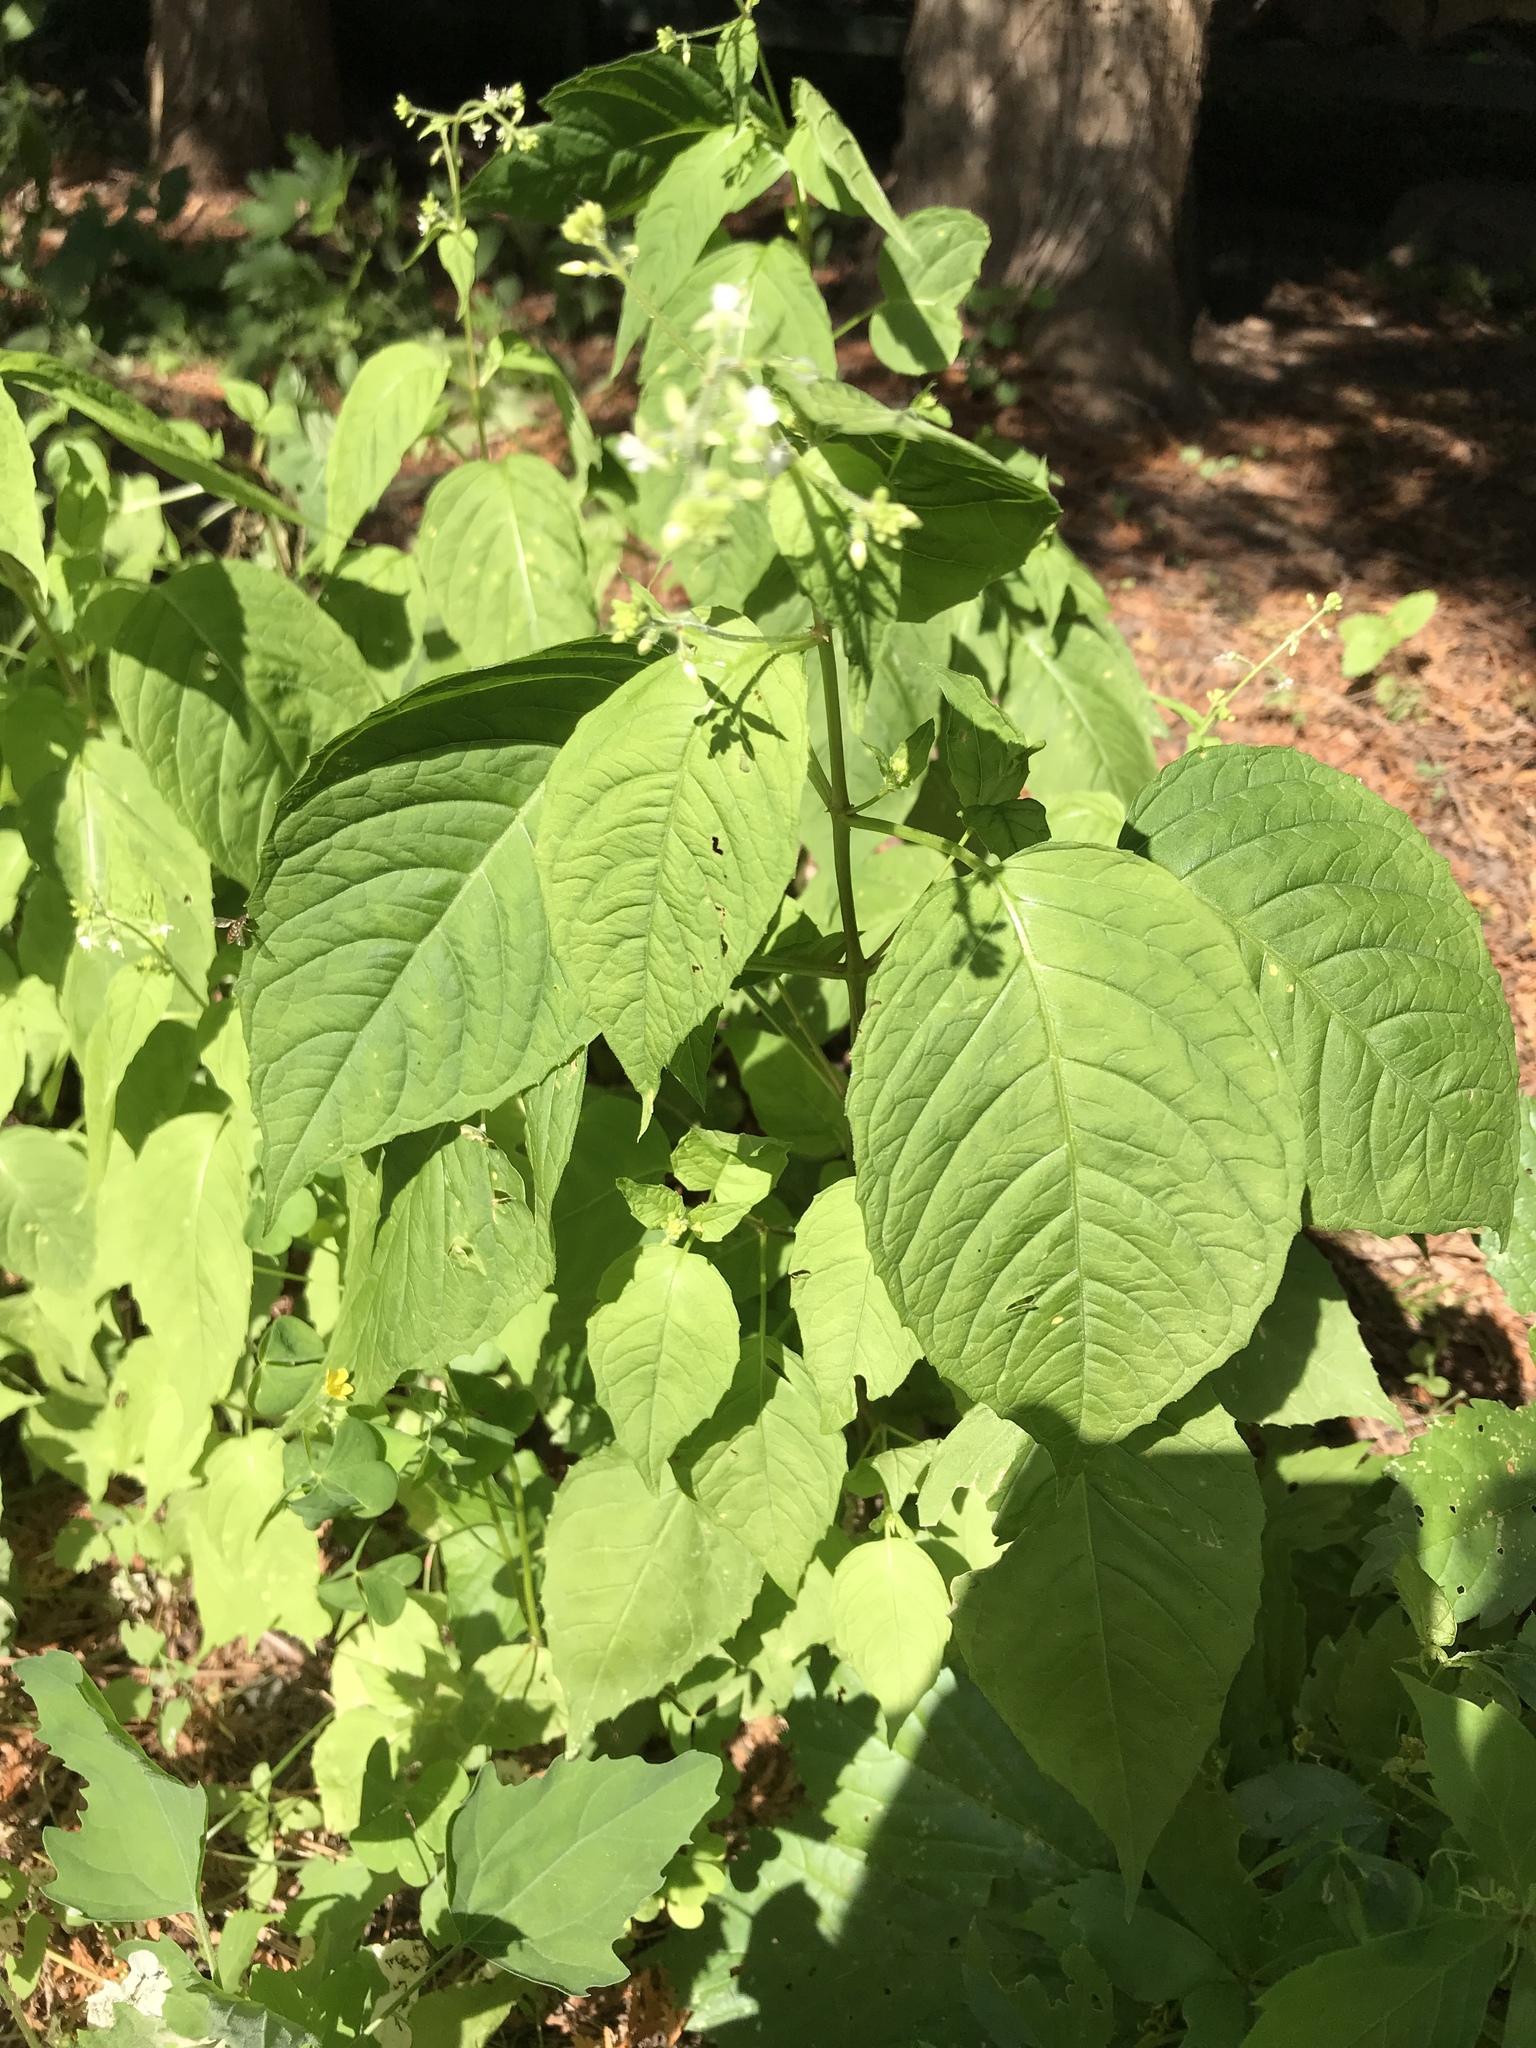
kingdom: Plantae
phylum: Tracheophyta
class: Magnoliopsida
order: Myrtales
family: Onagraceae
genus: Circaea
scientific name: Circaea canadensis
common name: Broad-leaved enchanter's nightshade
